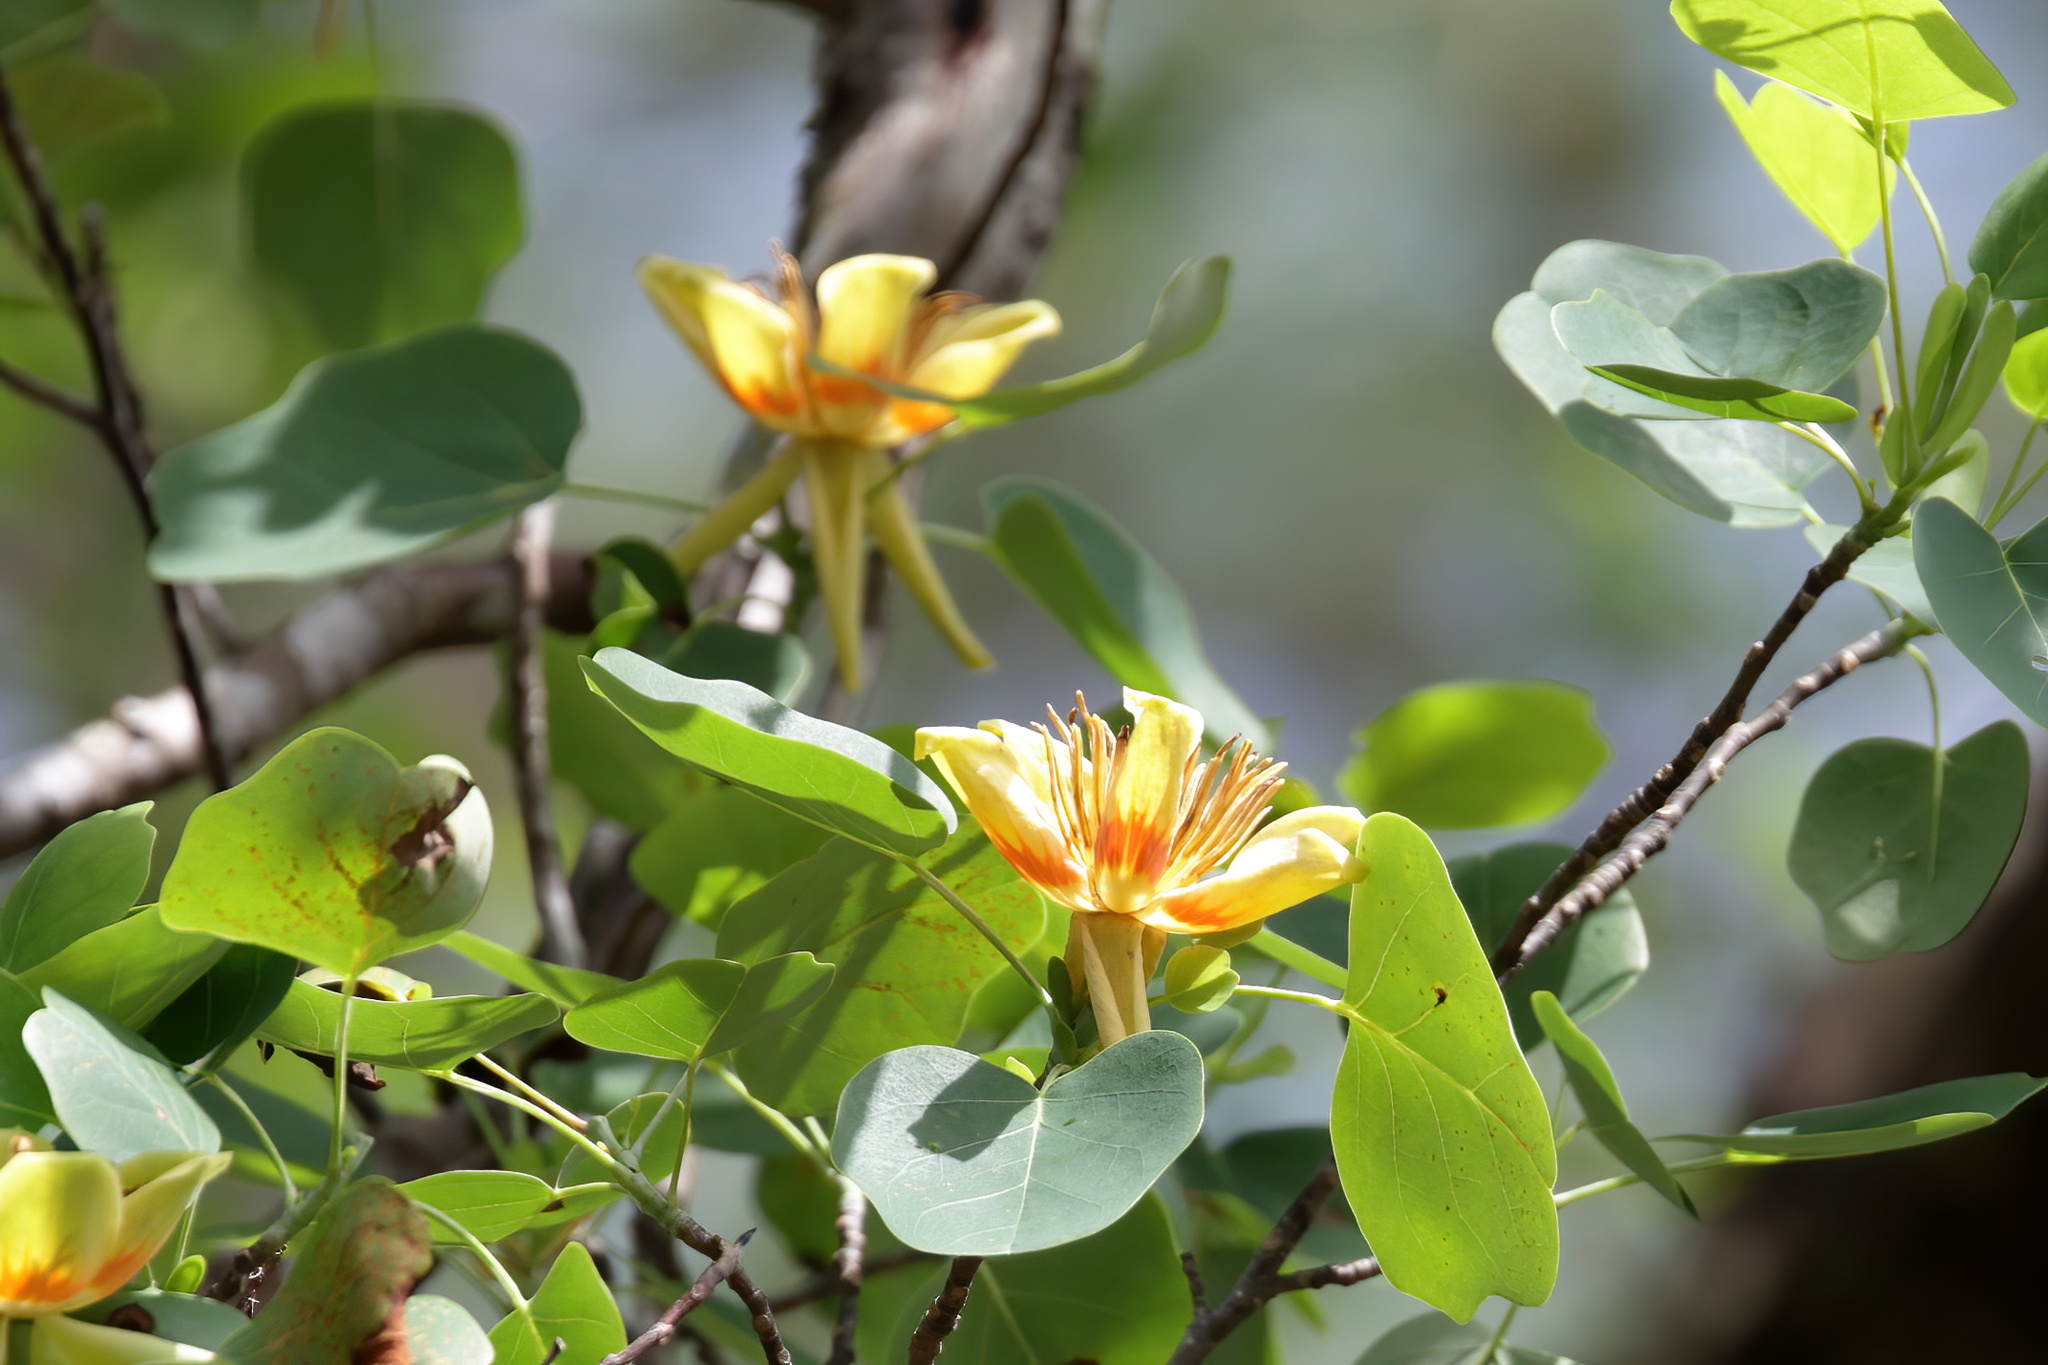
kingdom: Plantae
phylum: Tracheophyta
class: Magnoliopsida
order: Magnoliales
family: Magnoliaceae
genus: Liriodendron
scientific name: Liriodendron tulipifera
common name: Tulip tree
